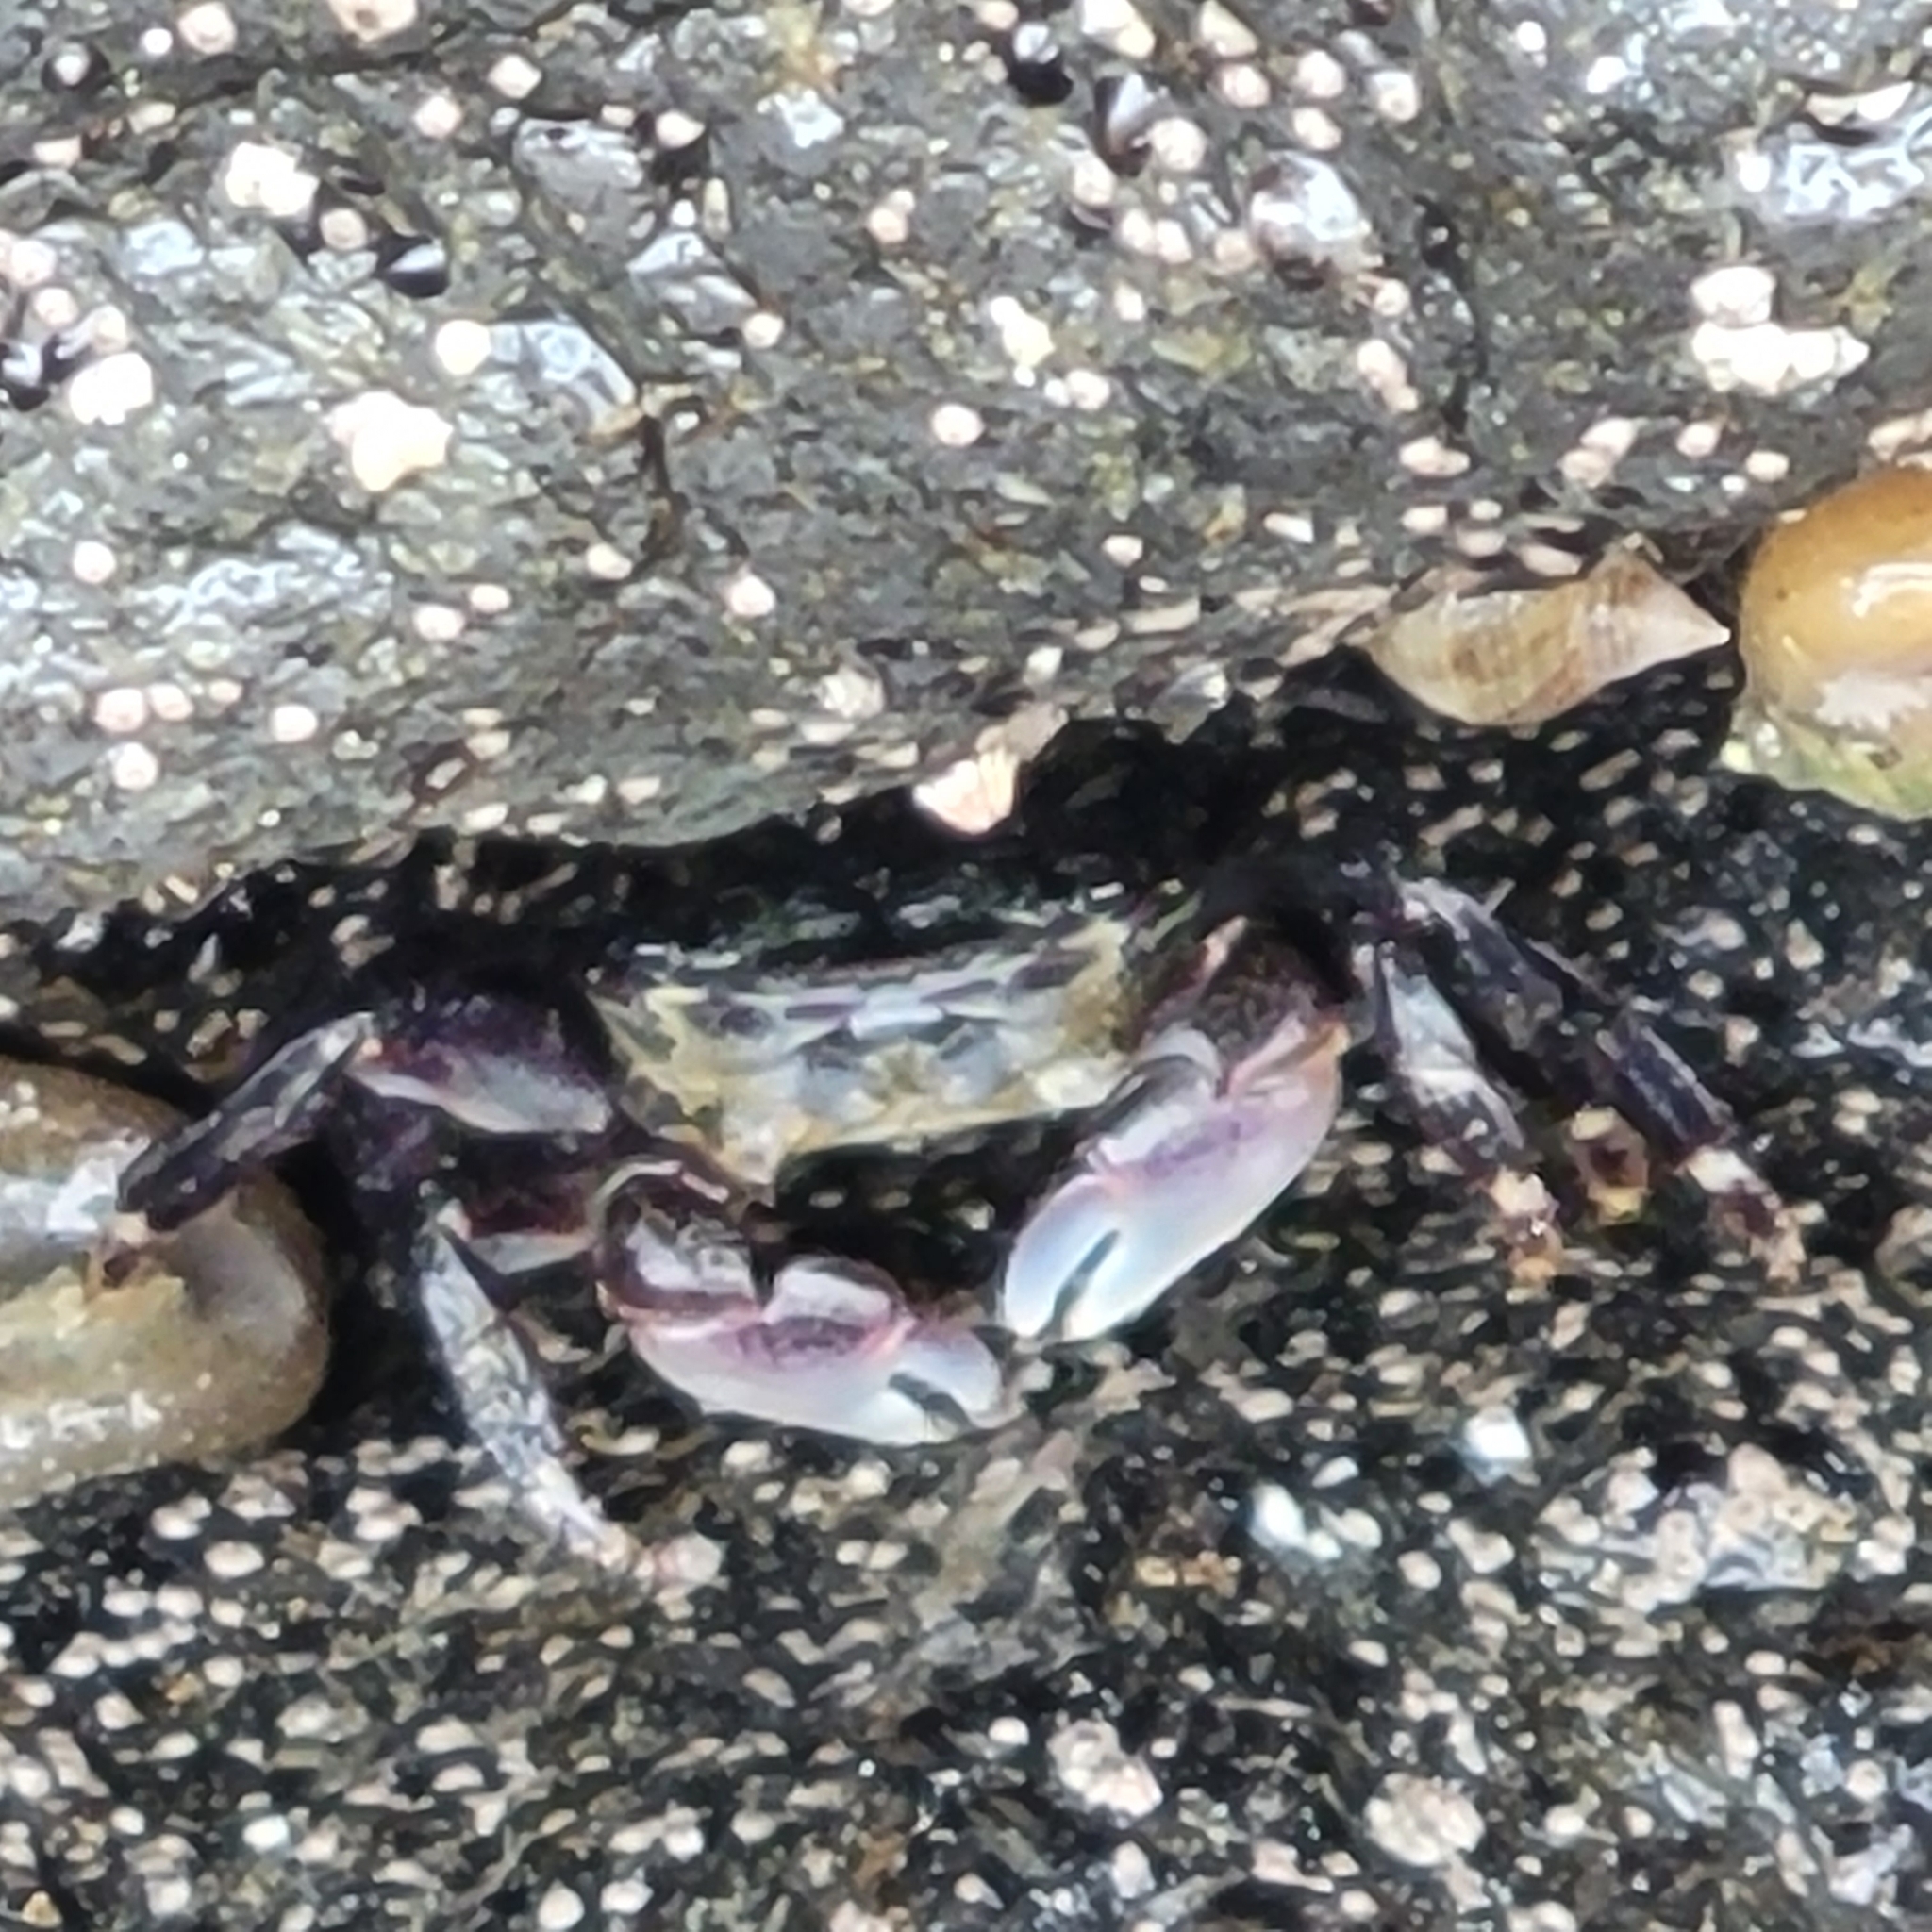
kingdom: Animalia
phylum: Arthropoda
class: Malacostraca
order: Decapoda
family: Grapsidae
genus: Pachygrapsus
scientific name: Pachygrapsus crassipes
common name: Striped shore crab
